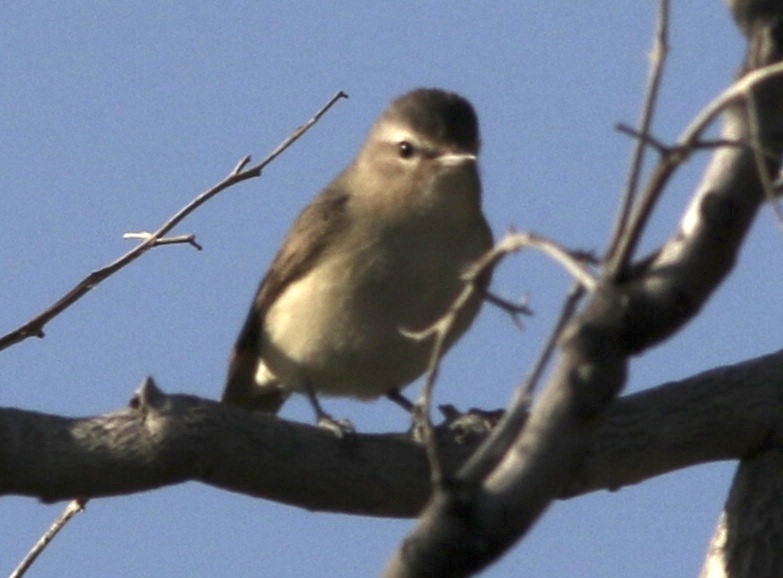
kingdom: Animalia
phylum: Chordata
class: Aves
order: Passeriformes
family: Vireonidae
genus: Vireo
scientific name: Vireo gilvus
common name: Warbling vireo
